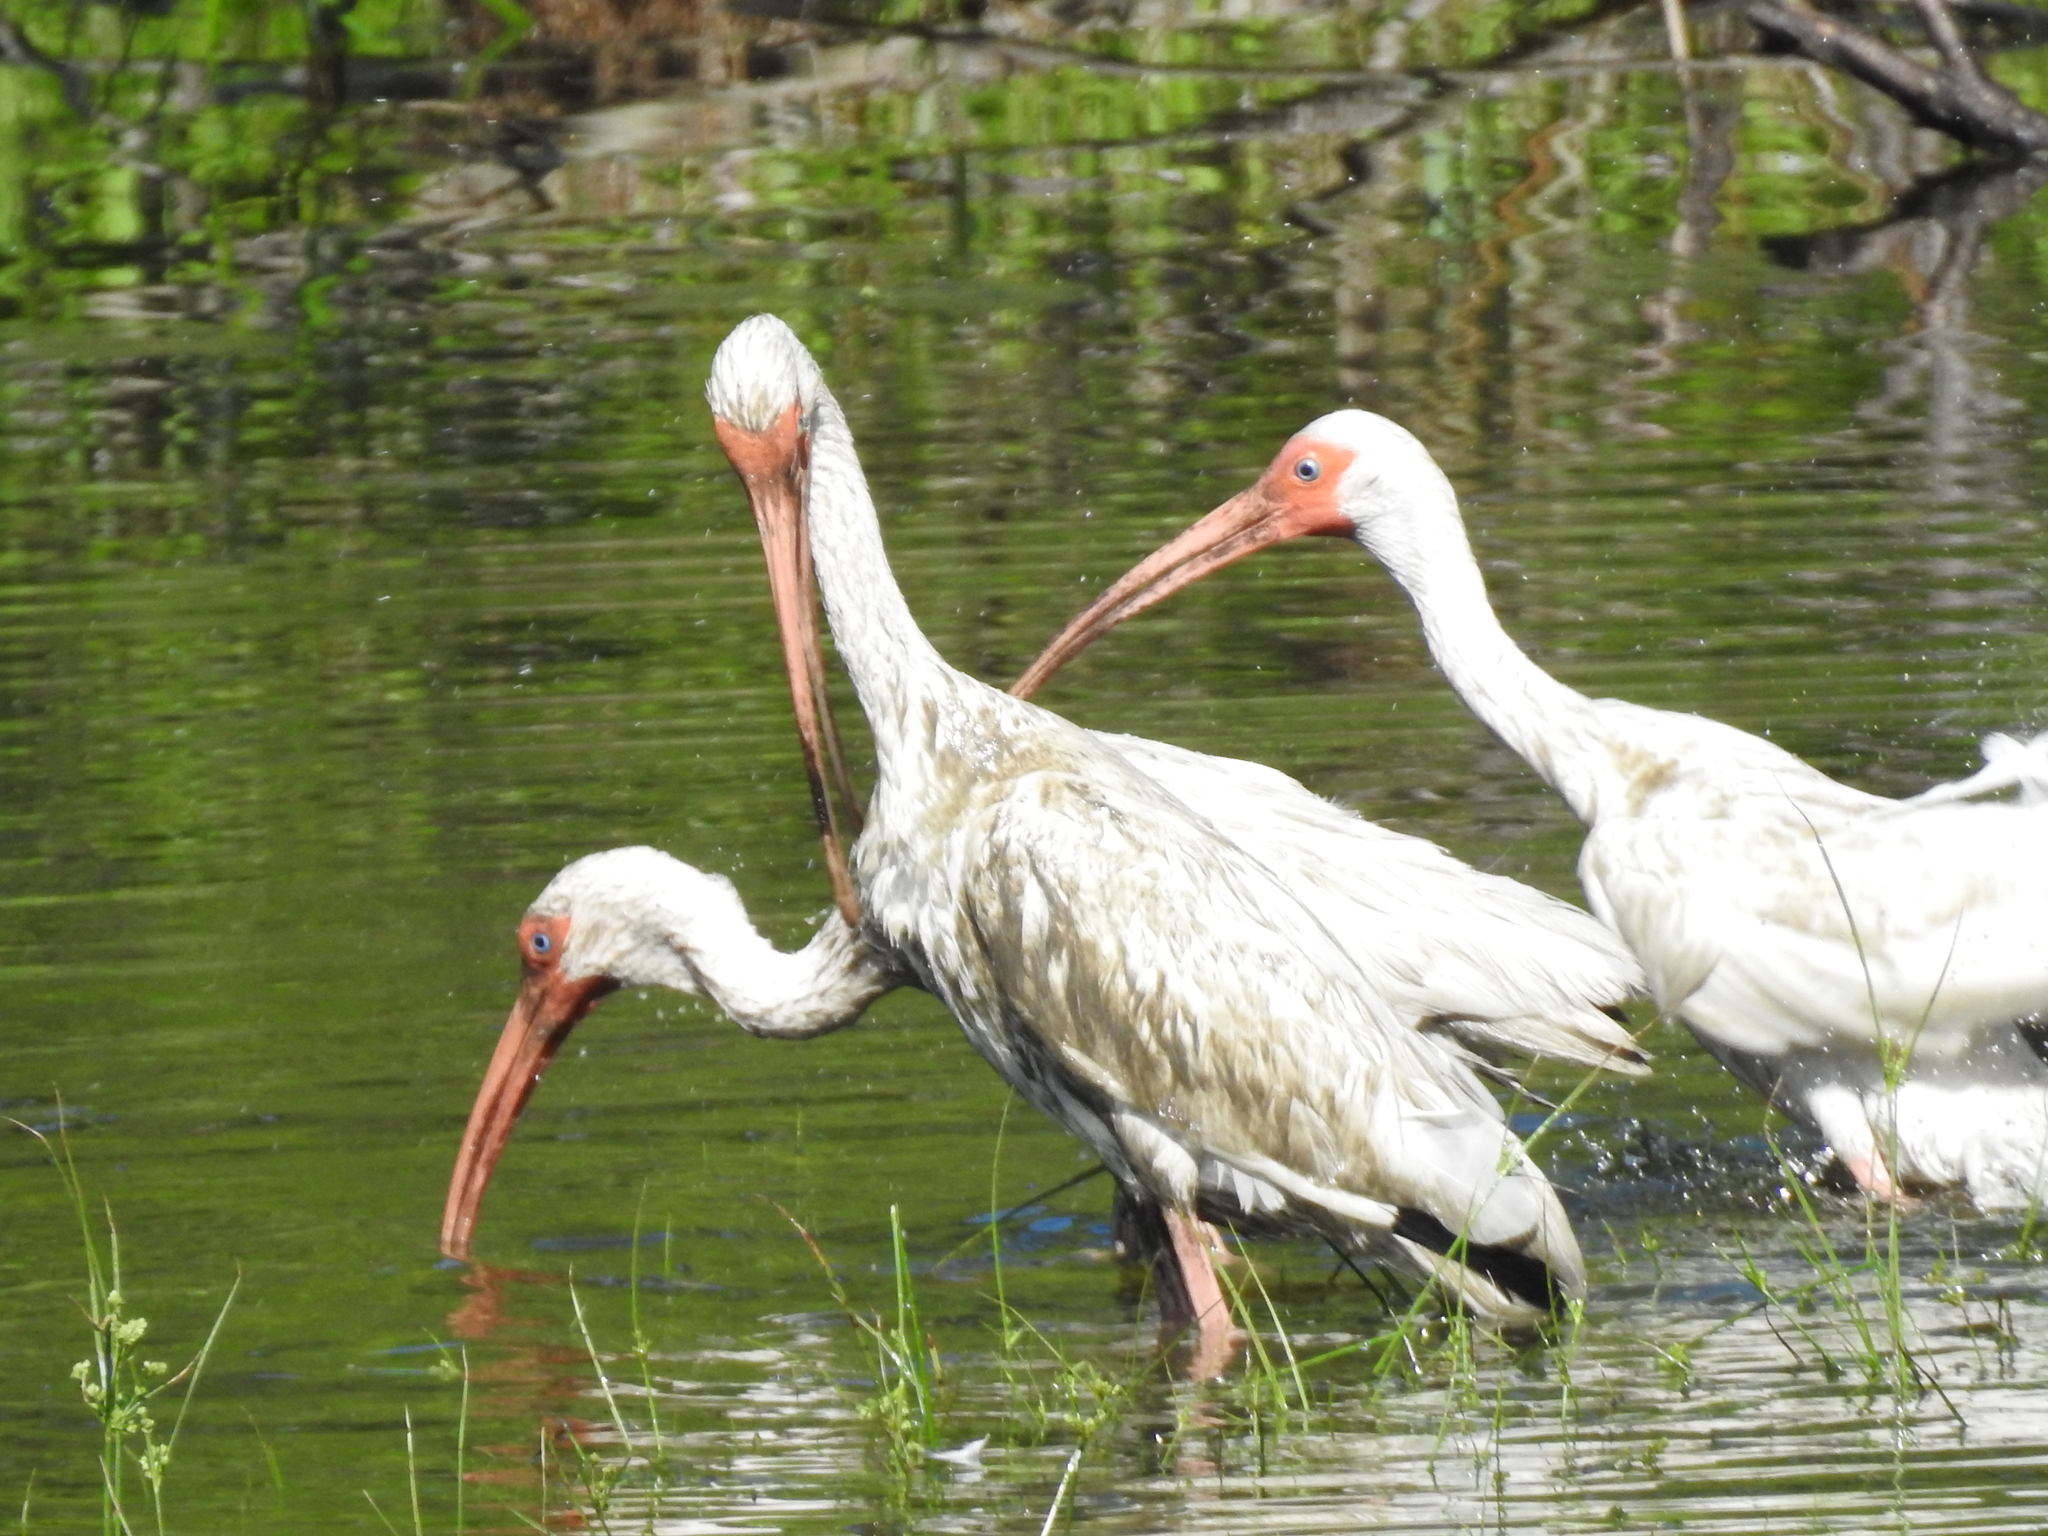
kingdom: Animalia
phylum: Chordata
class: Aves
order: Pelecaniformes
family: Threskiornithidae
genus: Eudocimus
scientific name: Eudocimus albus
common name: White ibis
